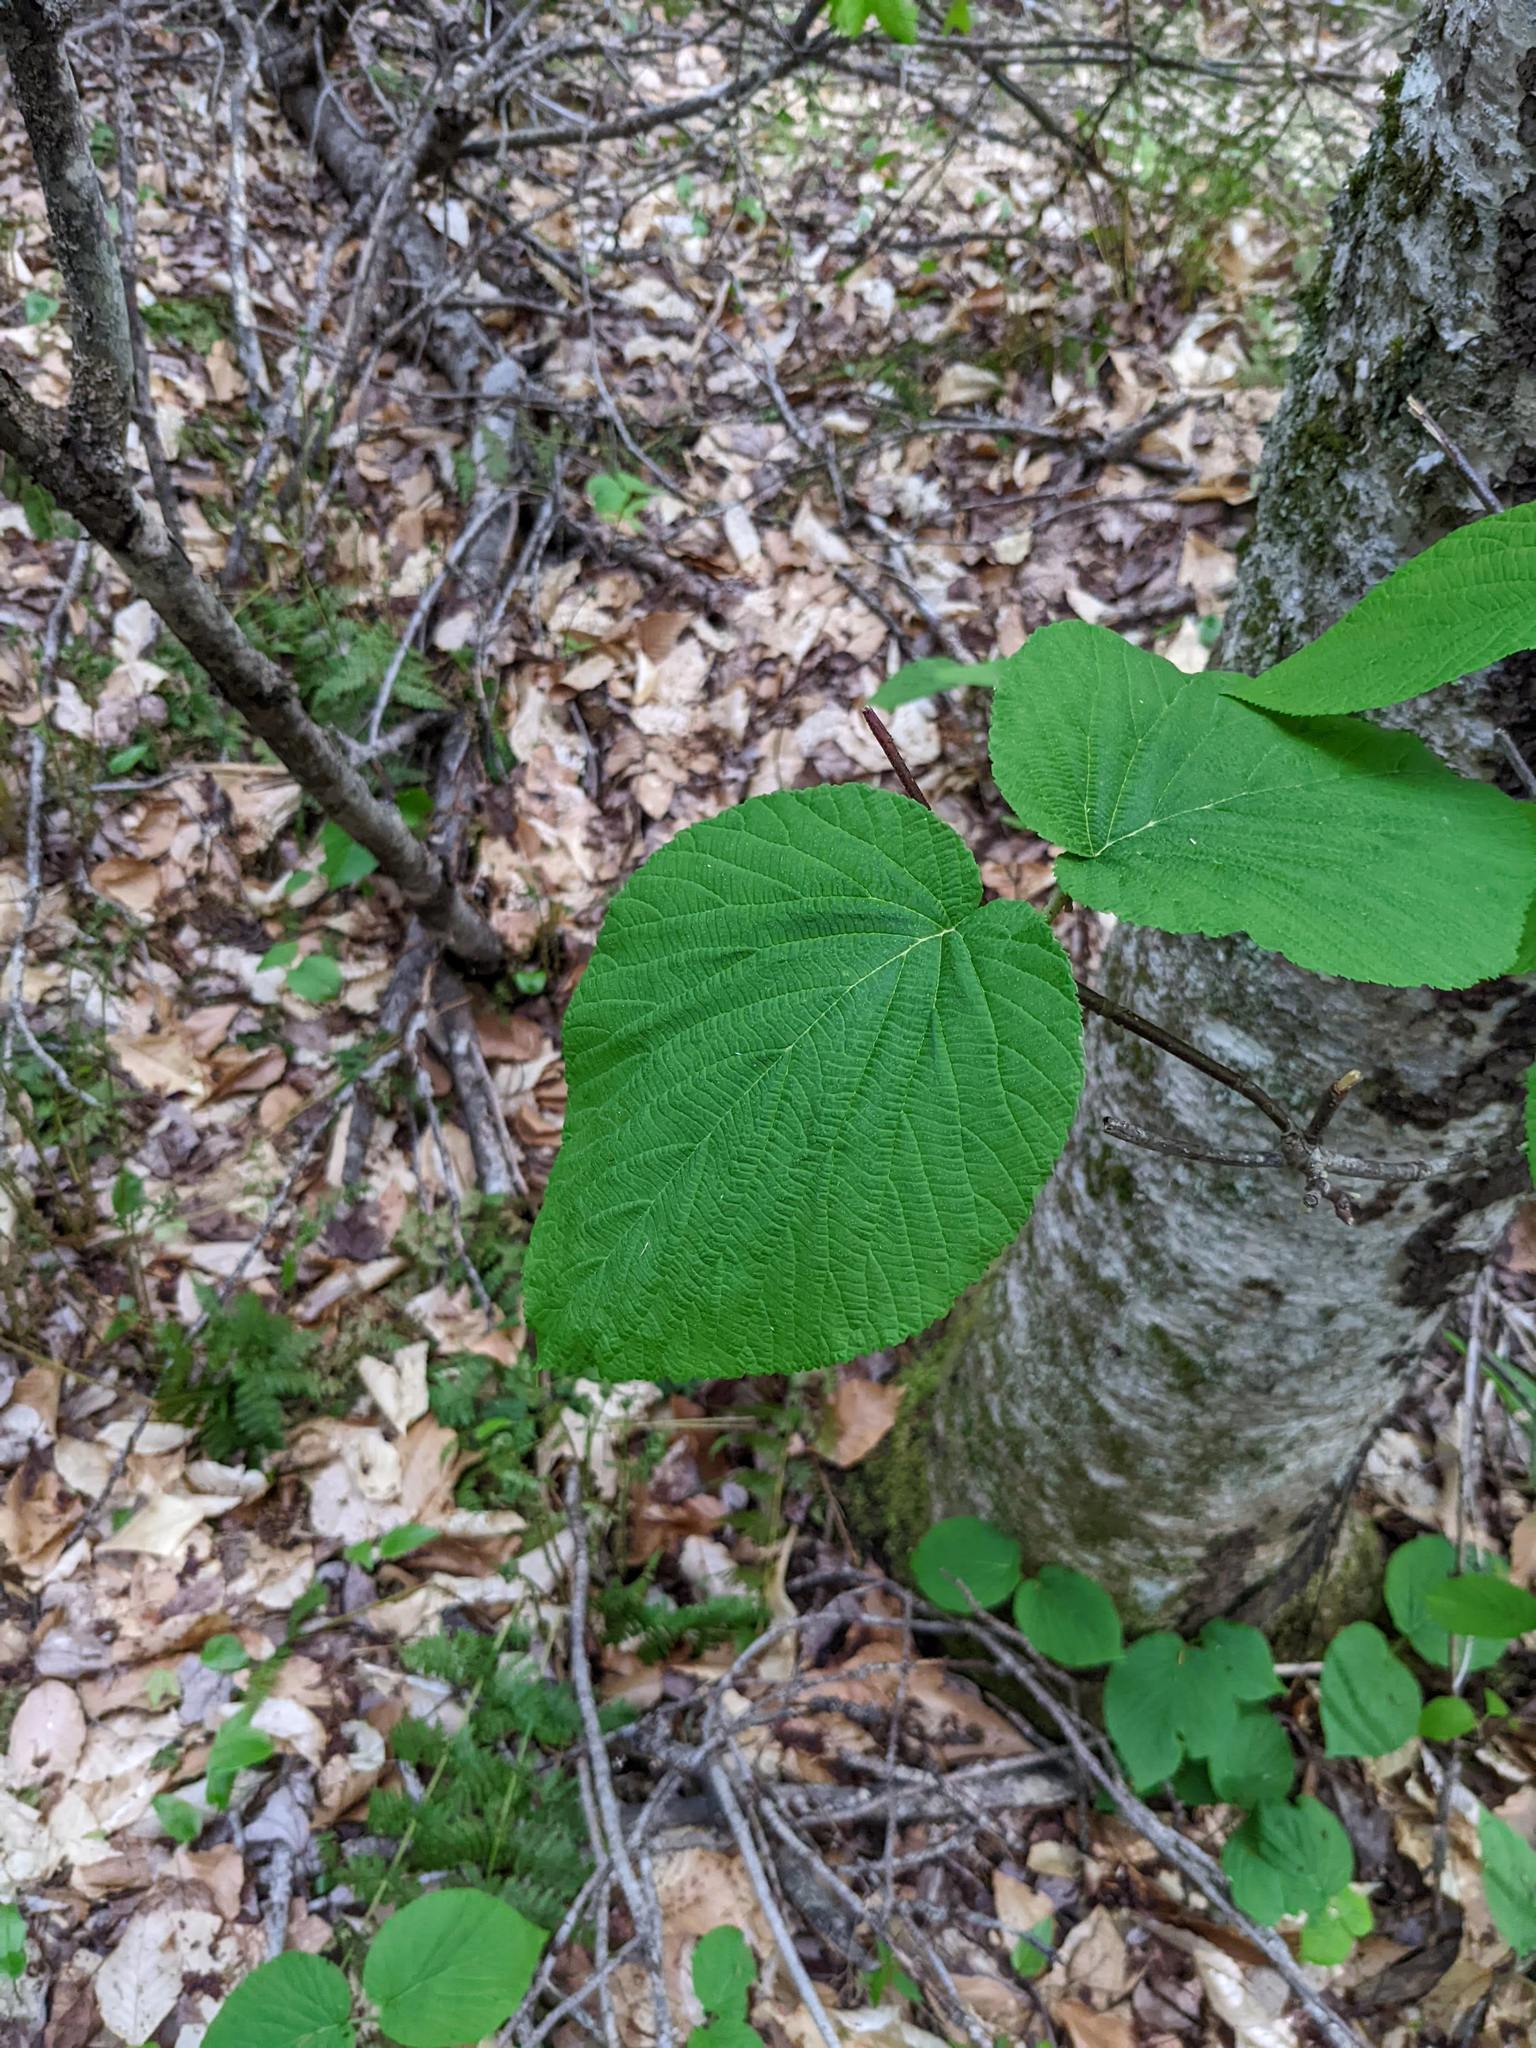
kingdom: Plantae
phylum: Tracheophyta
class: Magnoliopsida
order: Dipsacales
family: Viburnaceae
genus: Viburnum
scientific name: Viburnum lantanoides
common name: Hobblebush
